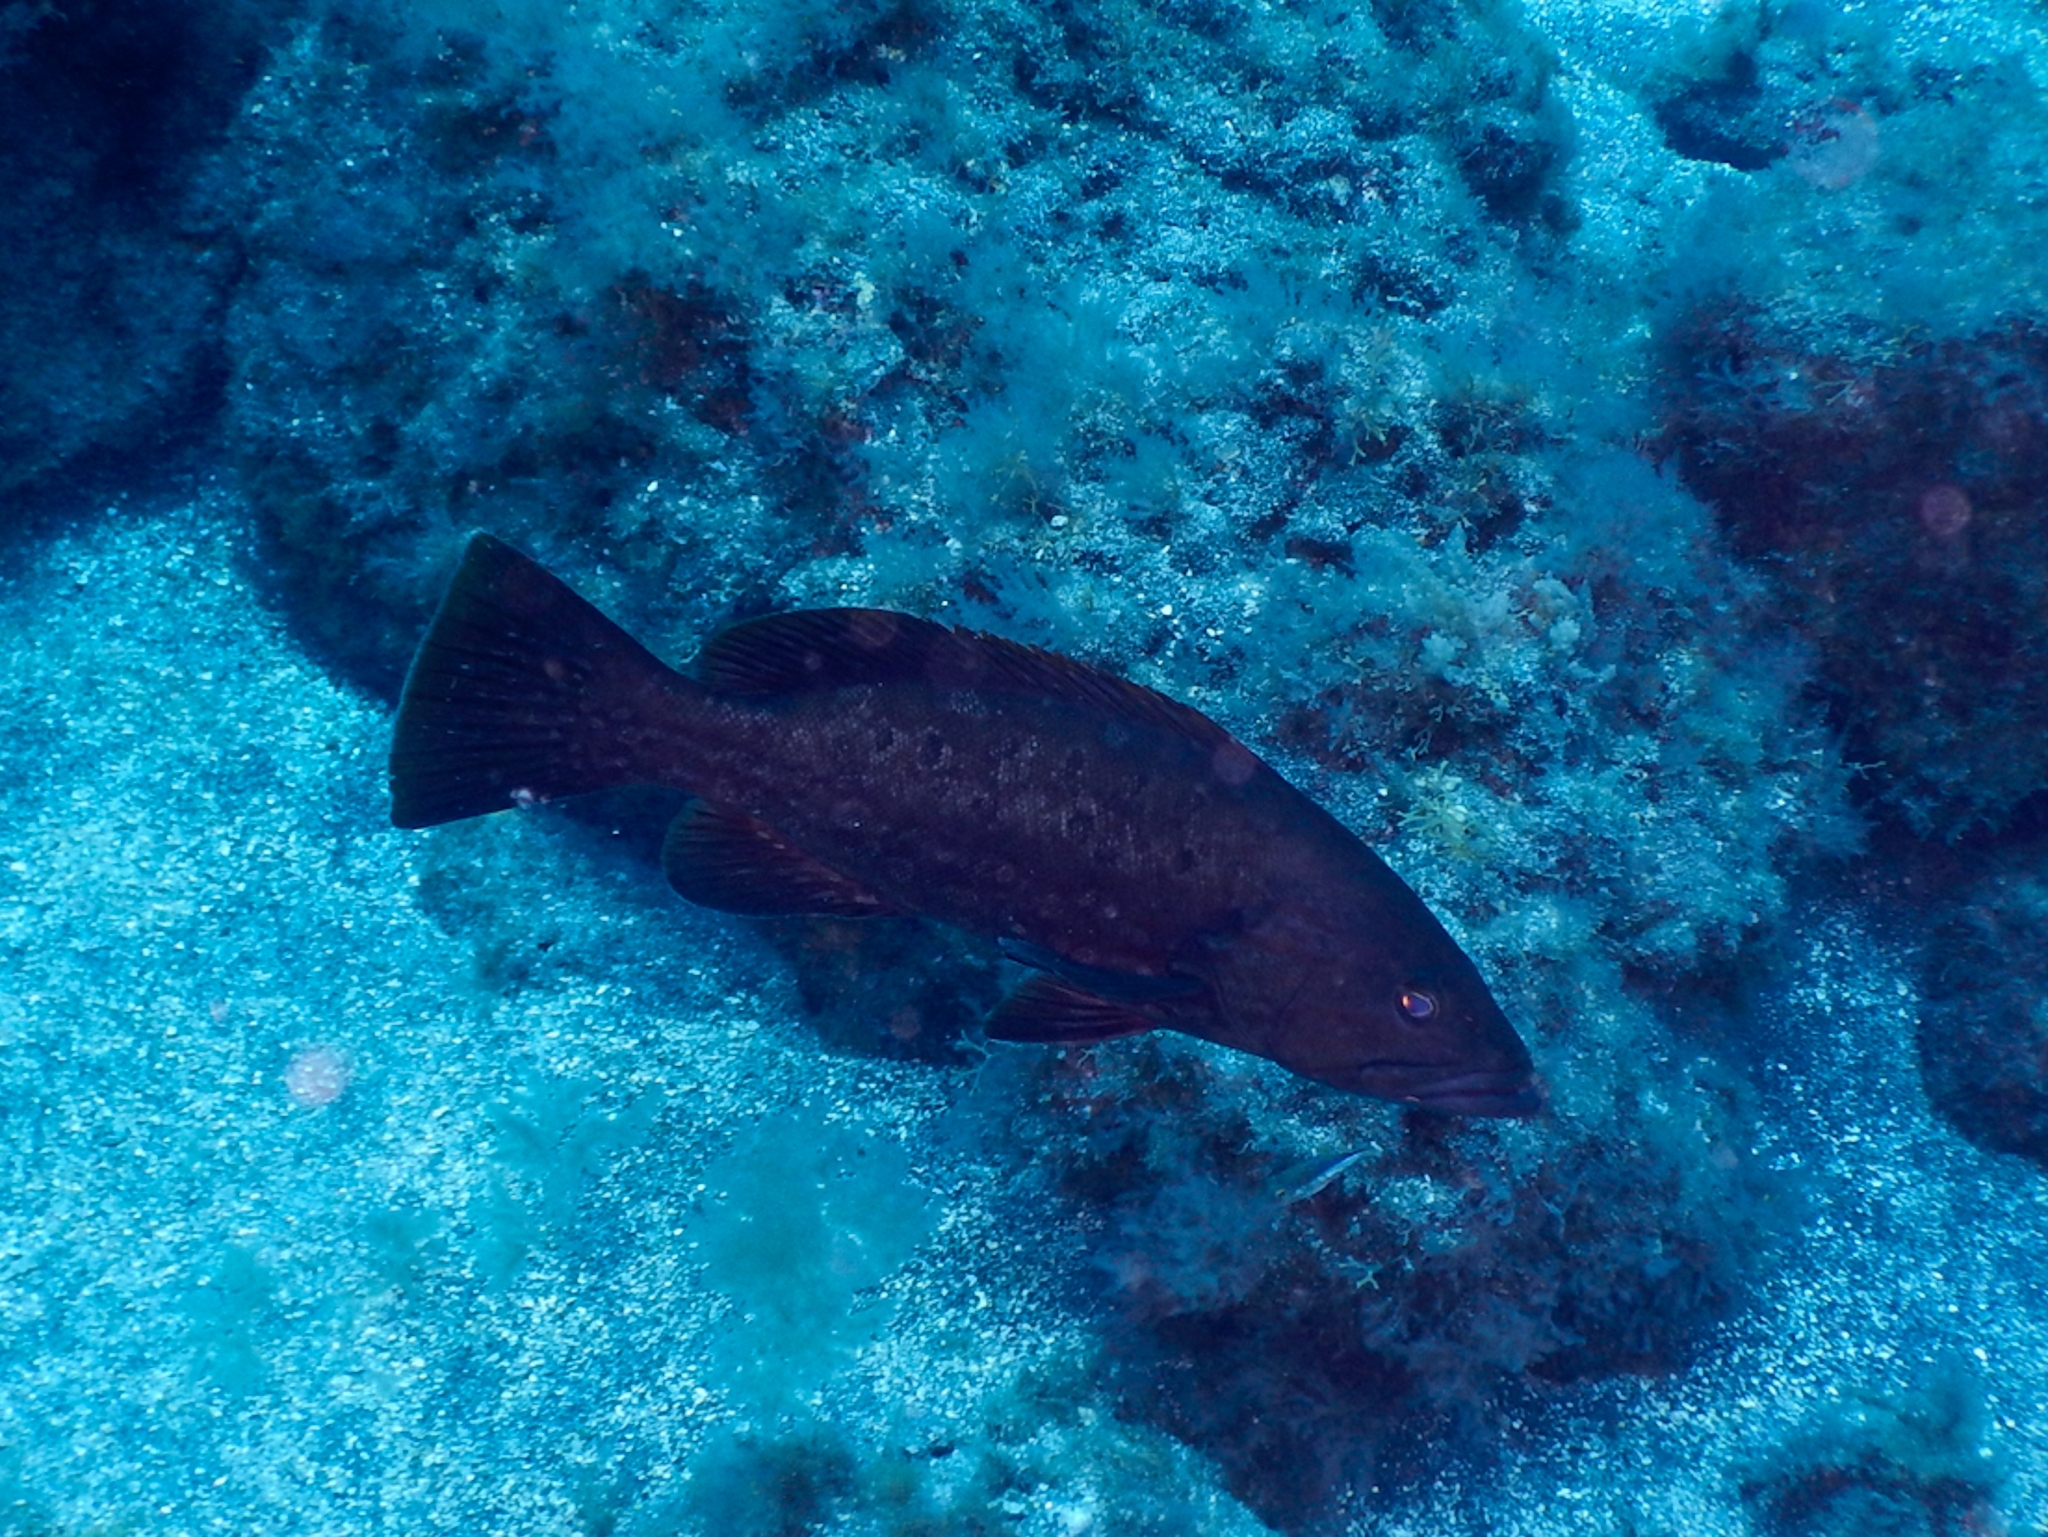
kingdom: Animalia
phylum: Chordata
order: Perciformes
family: Serranidae
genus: Mycteroperca
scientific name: Mycteroperca fusca
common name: Island grouper
